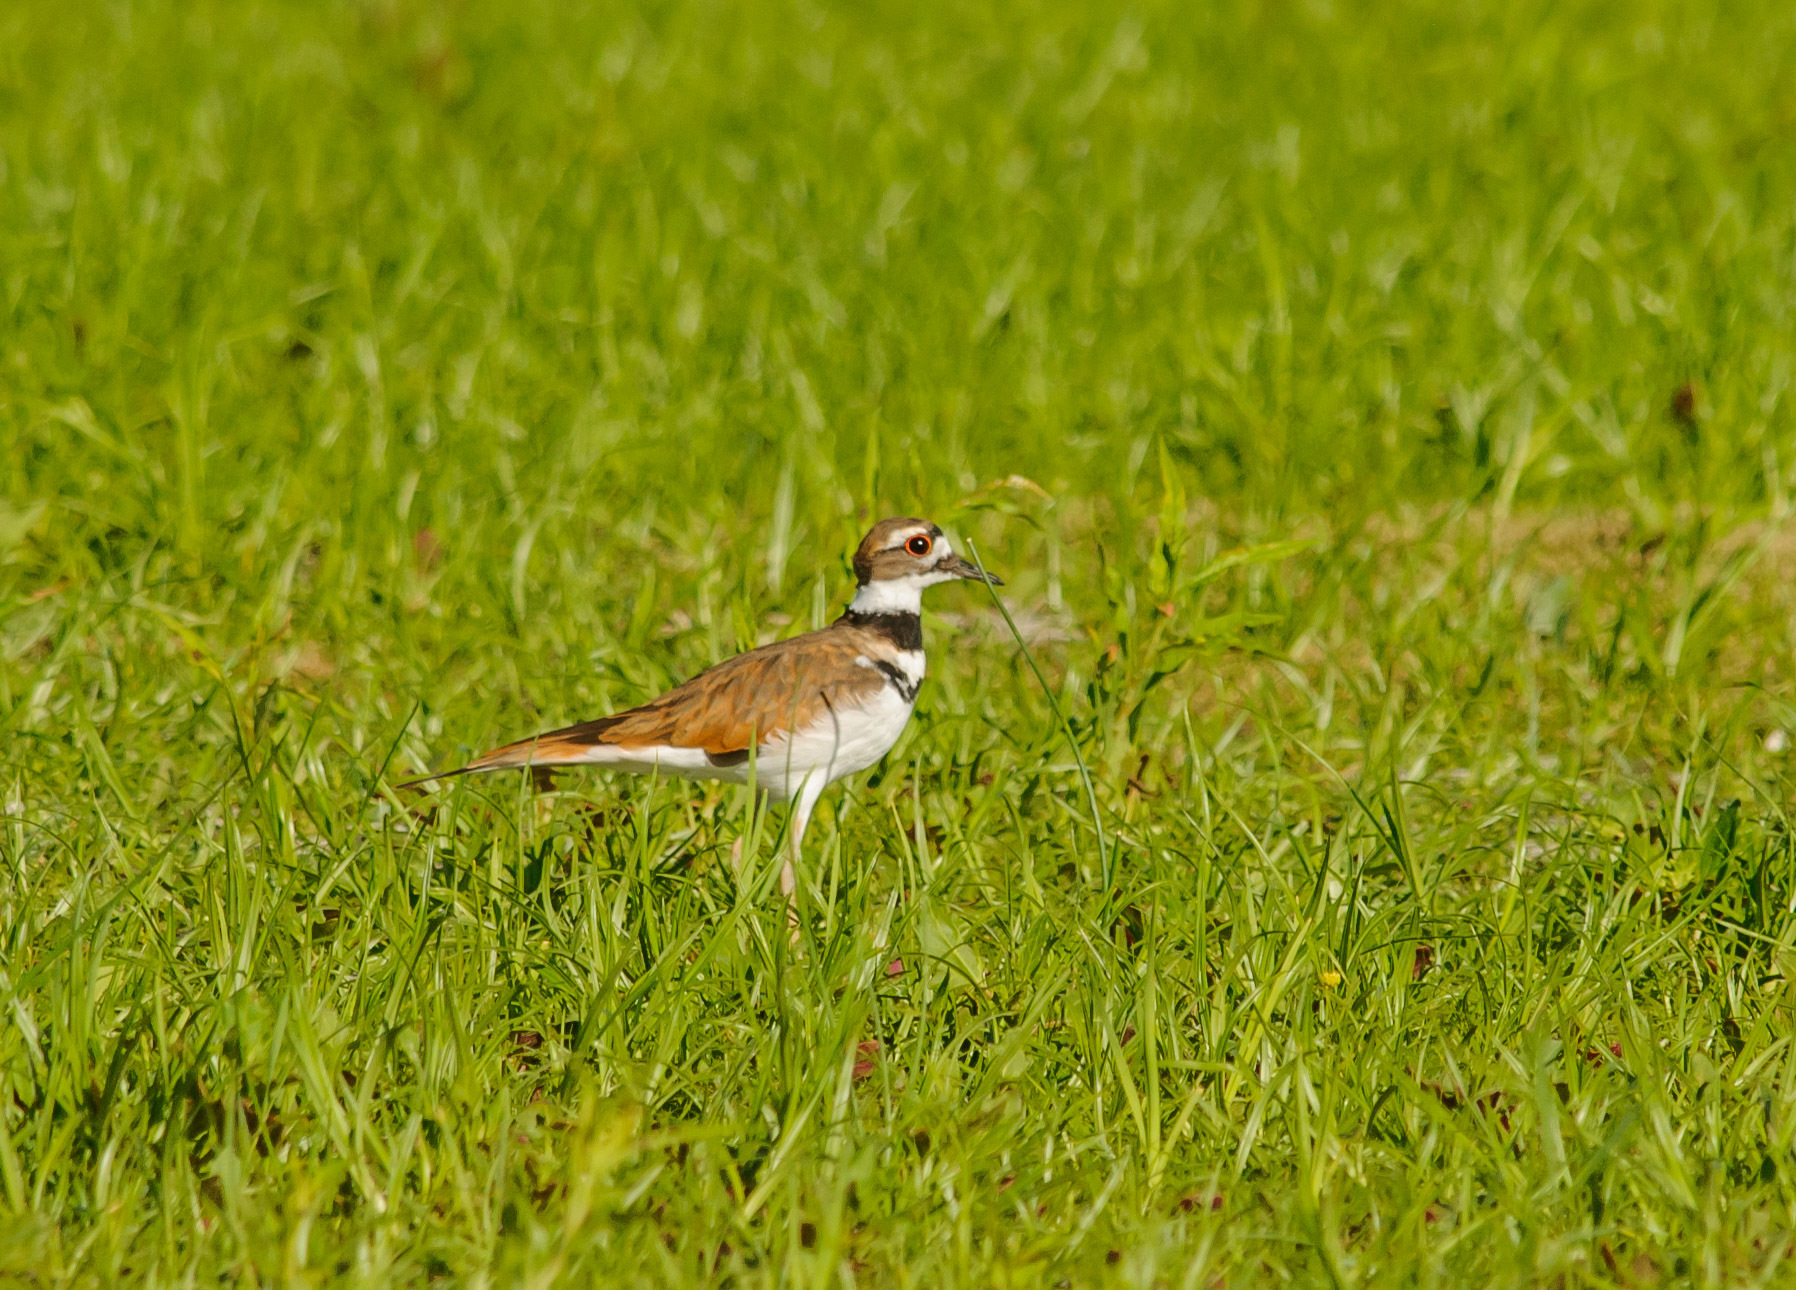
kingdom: Animalia
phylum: Chordata
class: Aves
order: Charadriiformes
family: Charadriidae
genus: Charadrius
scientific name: Charadrius vociferus
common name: Killdeer
